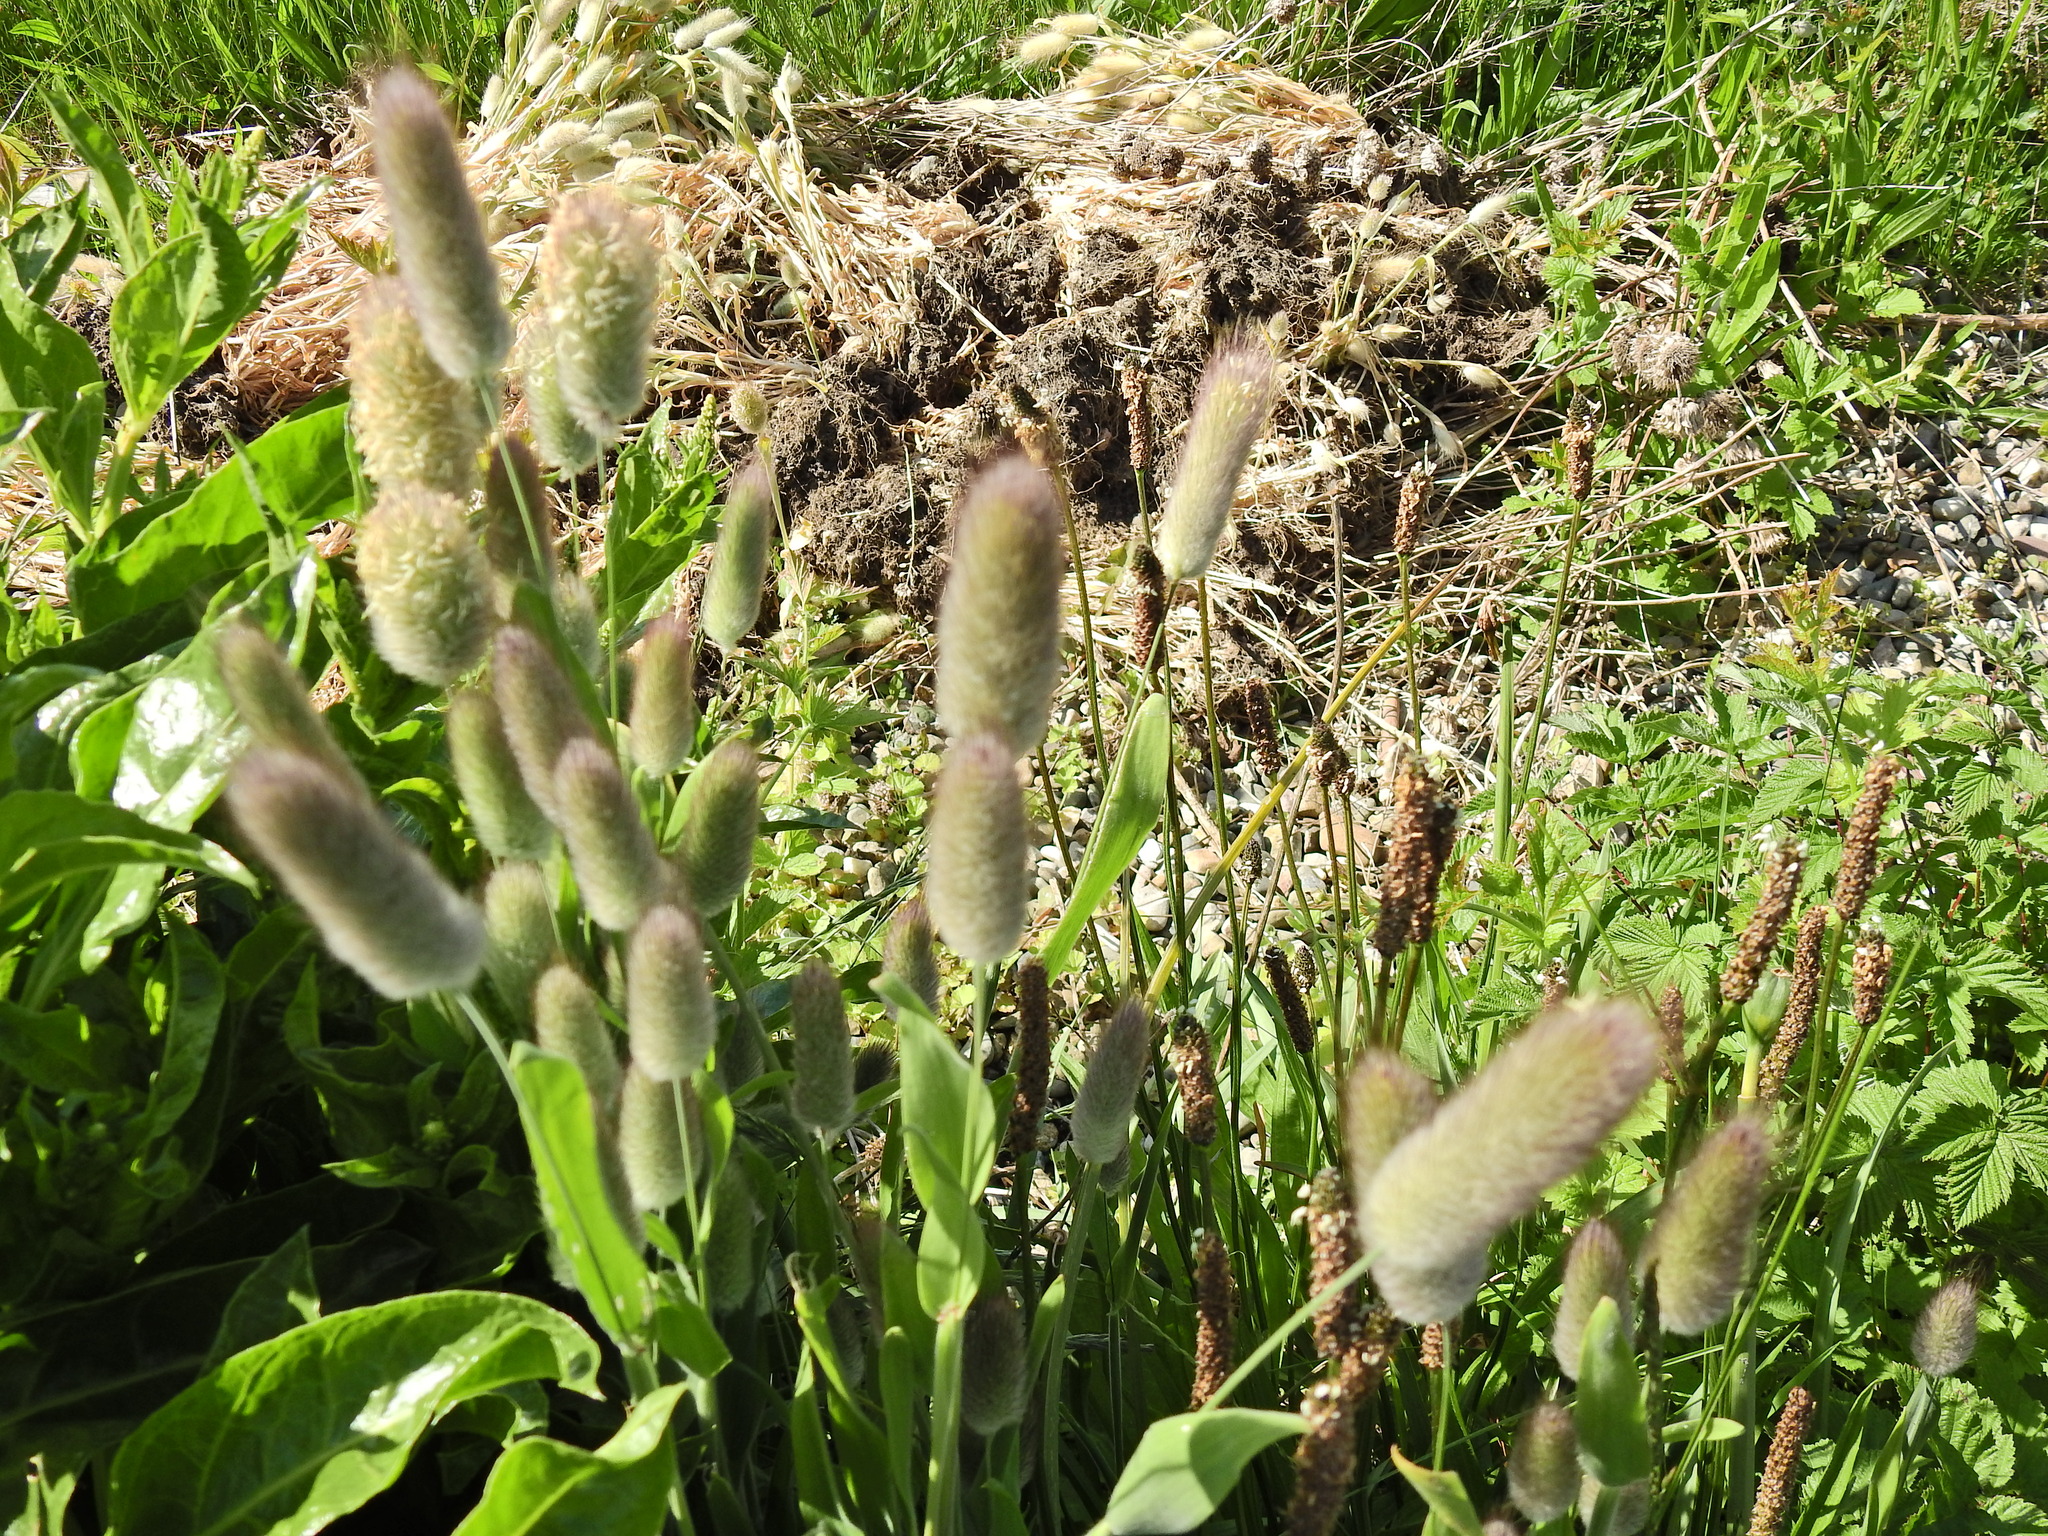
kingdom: Plantae
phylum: Tracheophyta
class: Liliopsida
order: Poales
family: Poaceae
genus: Lagurus
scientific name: Lagurus ovatus
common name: Hare's-tail
